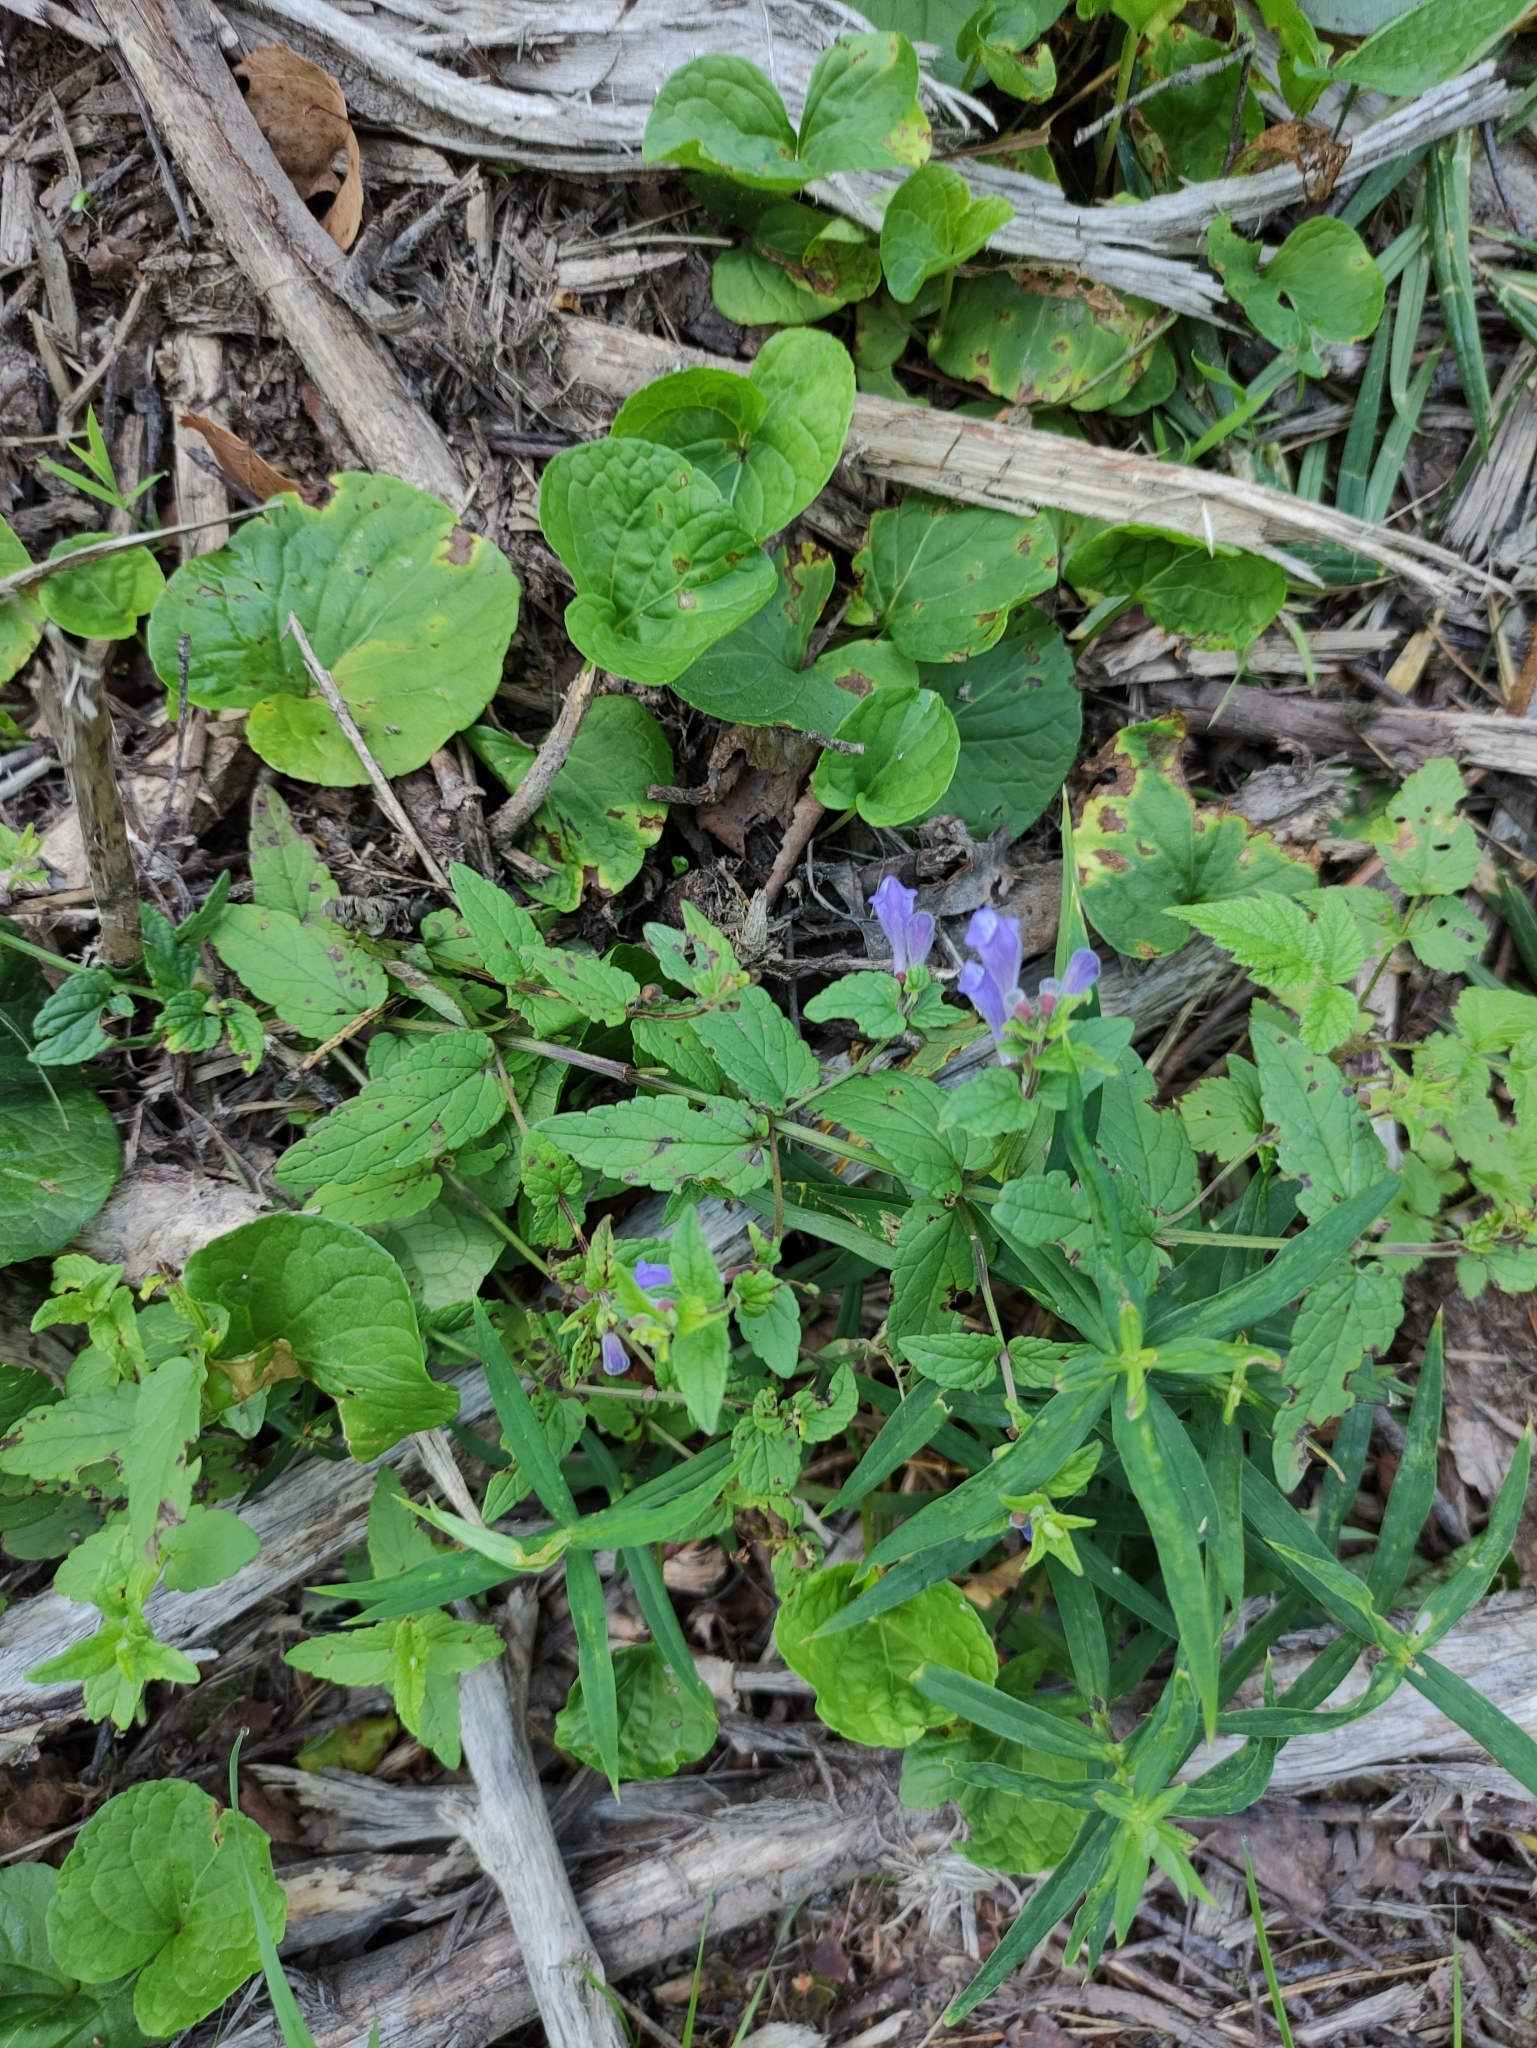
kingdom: Plantae
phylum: Tracheophyta
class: Magnoliopsida
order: Lamiales
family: Lamiaceae
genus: Scutellaria
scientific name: Scutellaria galericulata
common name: Skullcap
